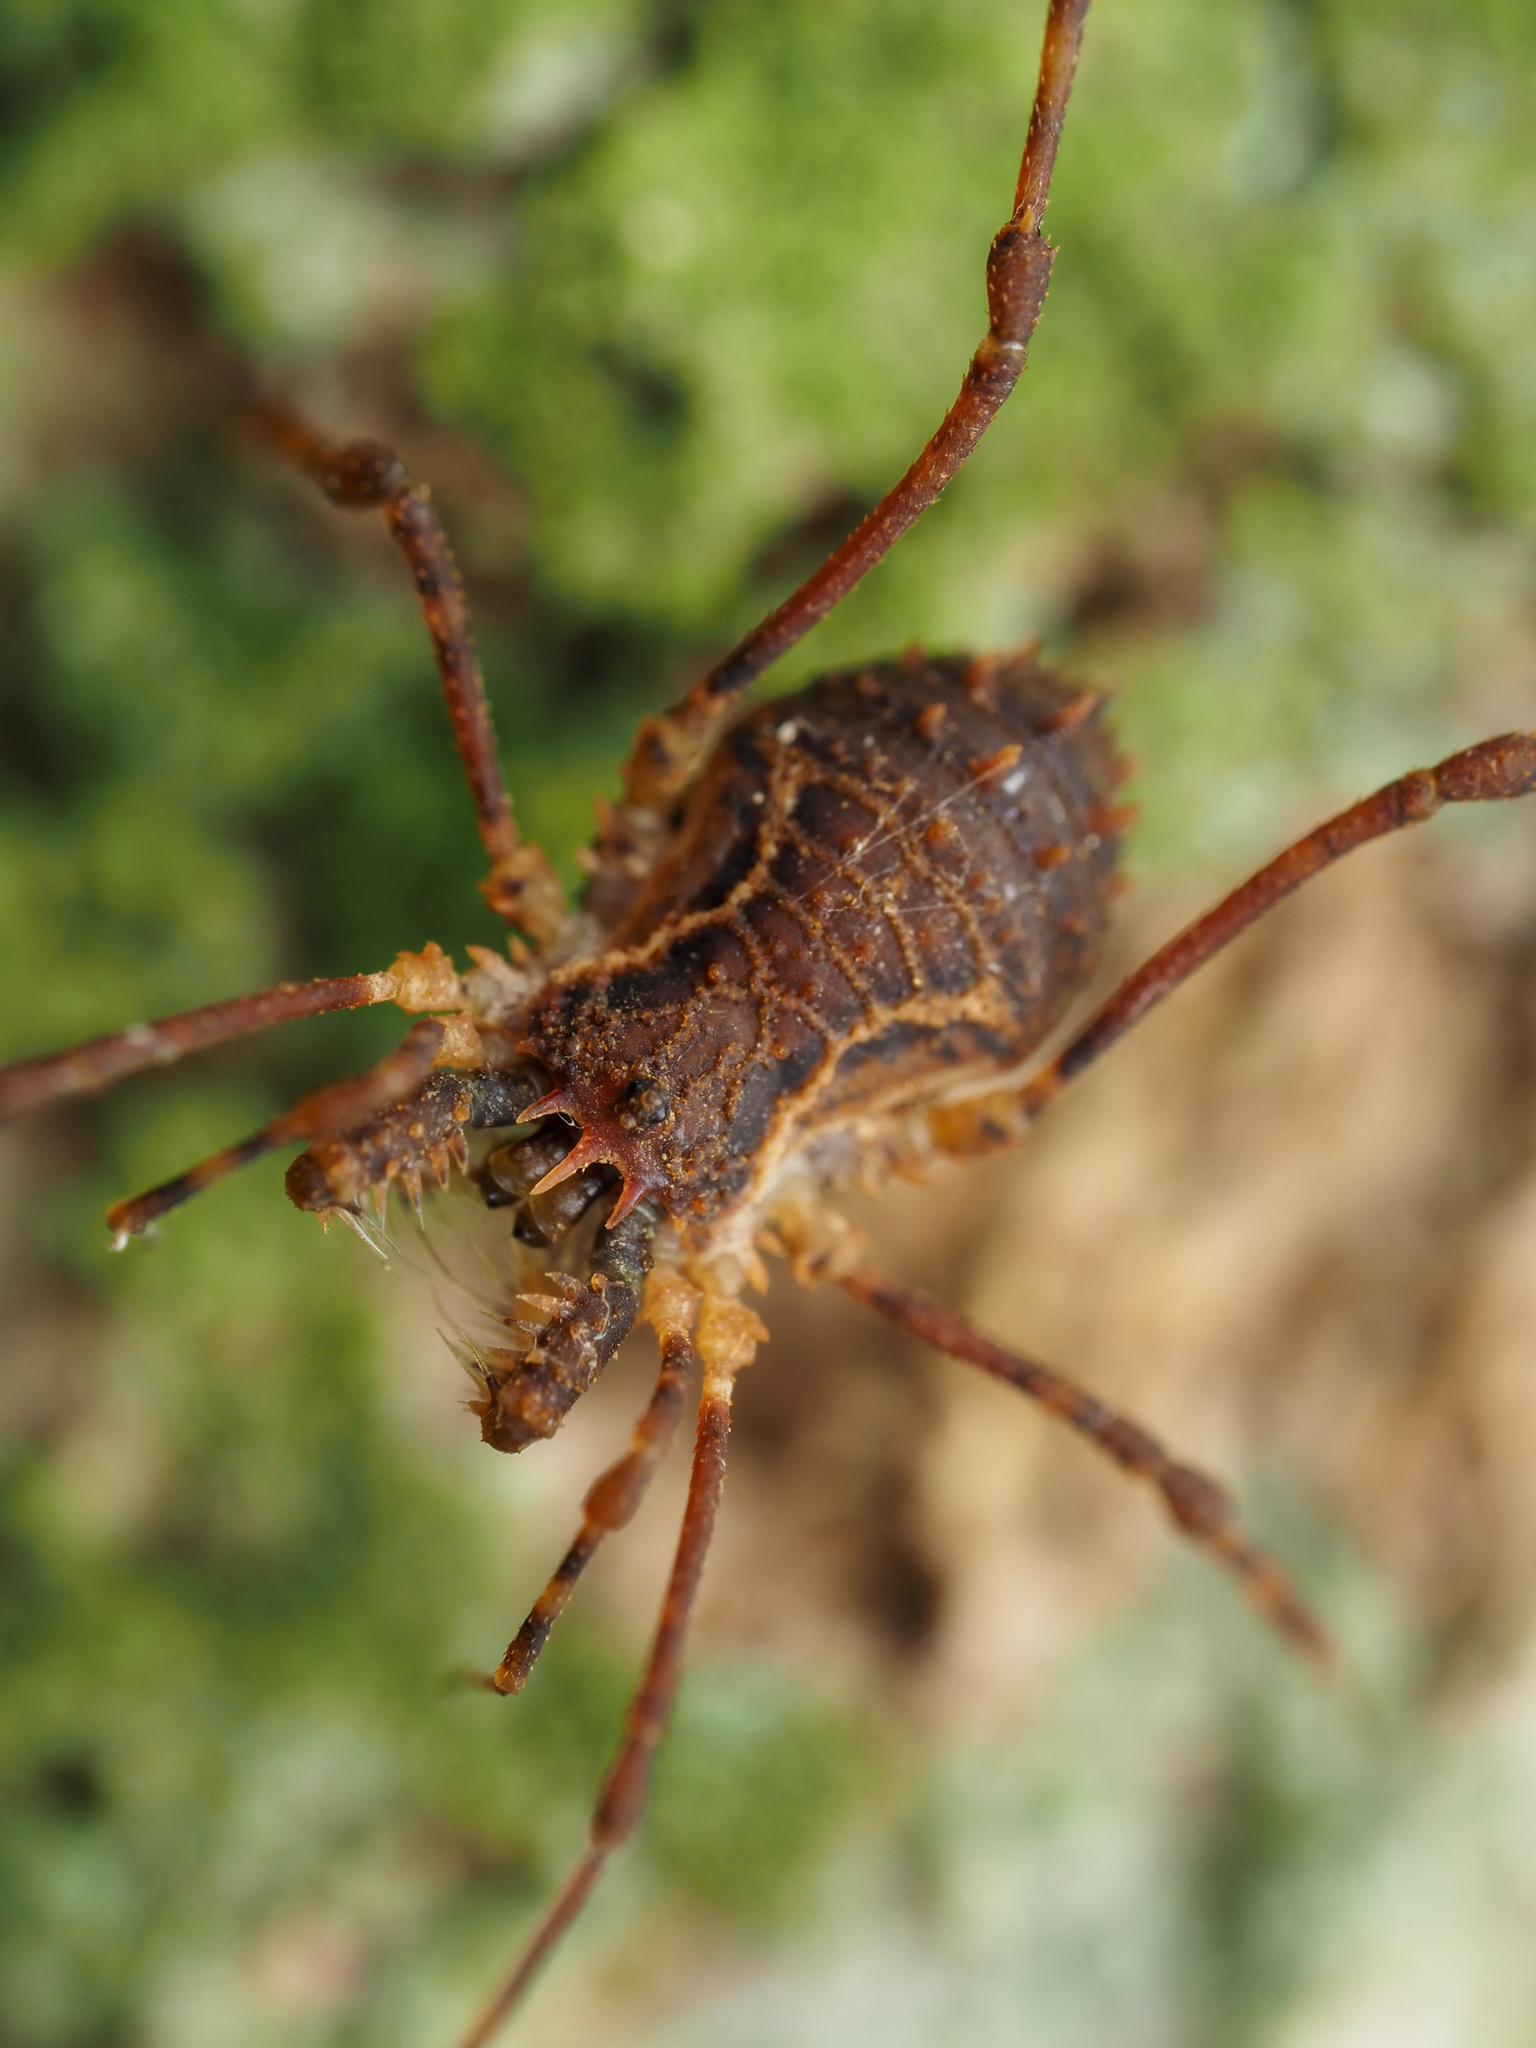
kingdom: Animalia
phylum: Arthropoda
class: Arachnida
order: Opiliones
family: Triaenonychidae
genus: Algidia
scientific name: Algidia chiltoni
